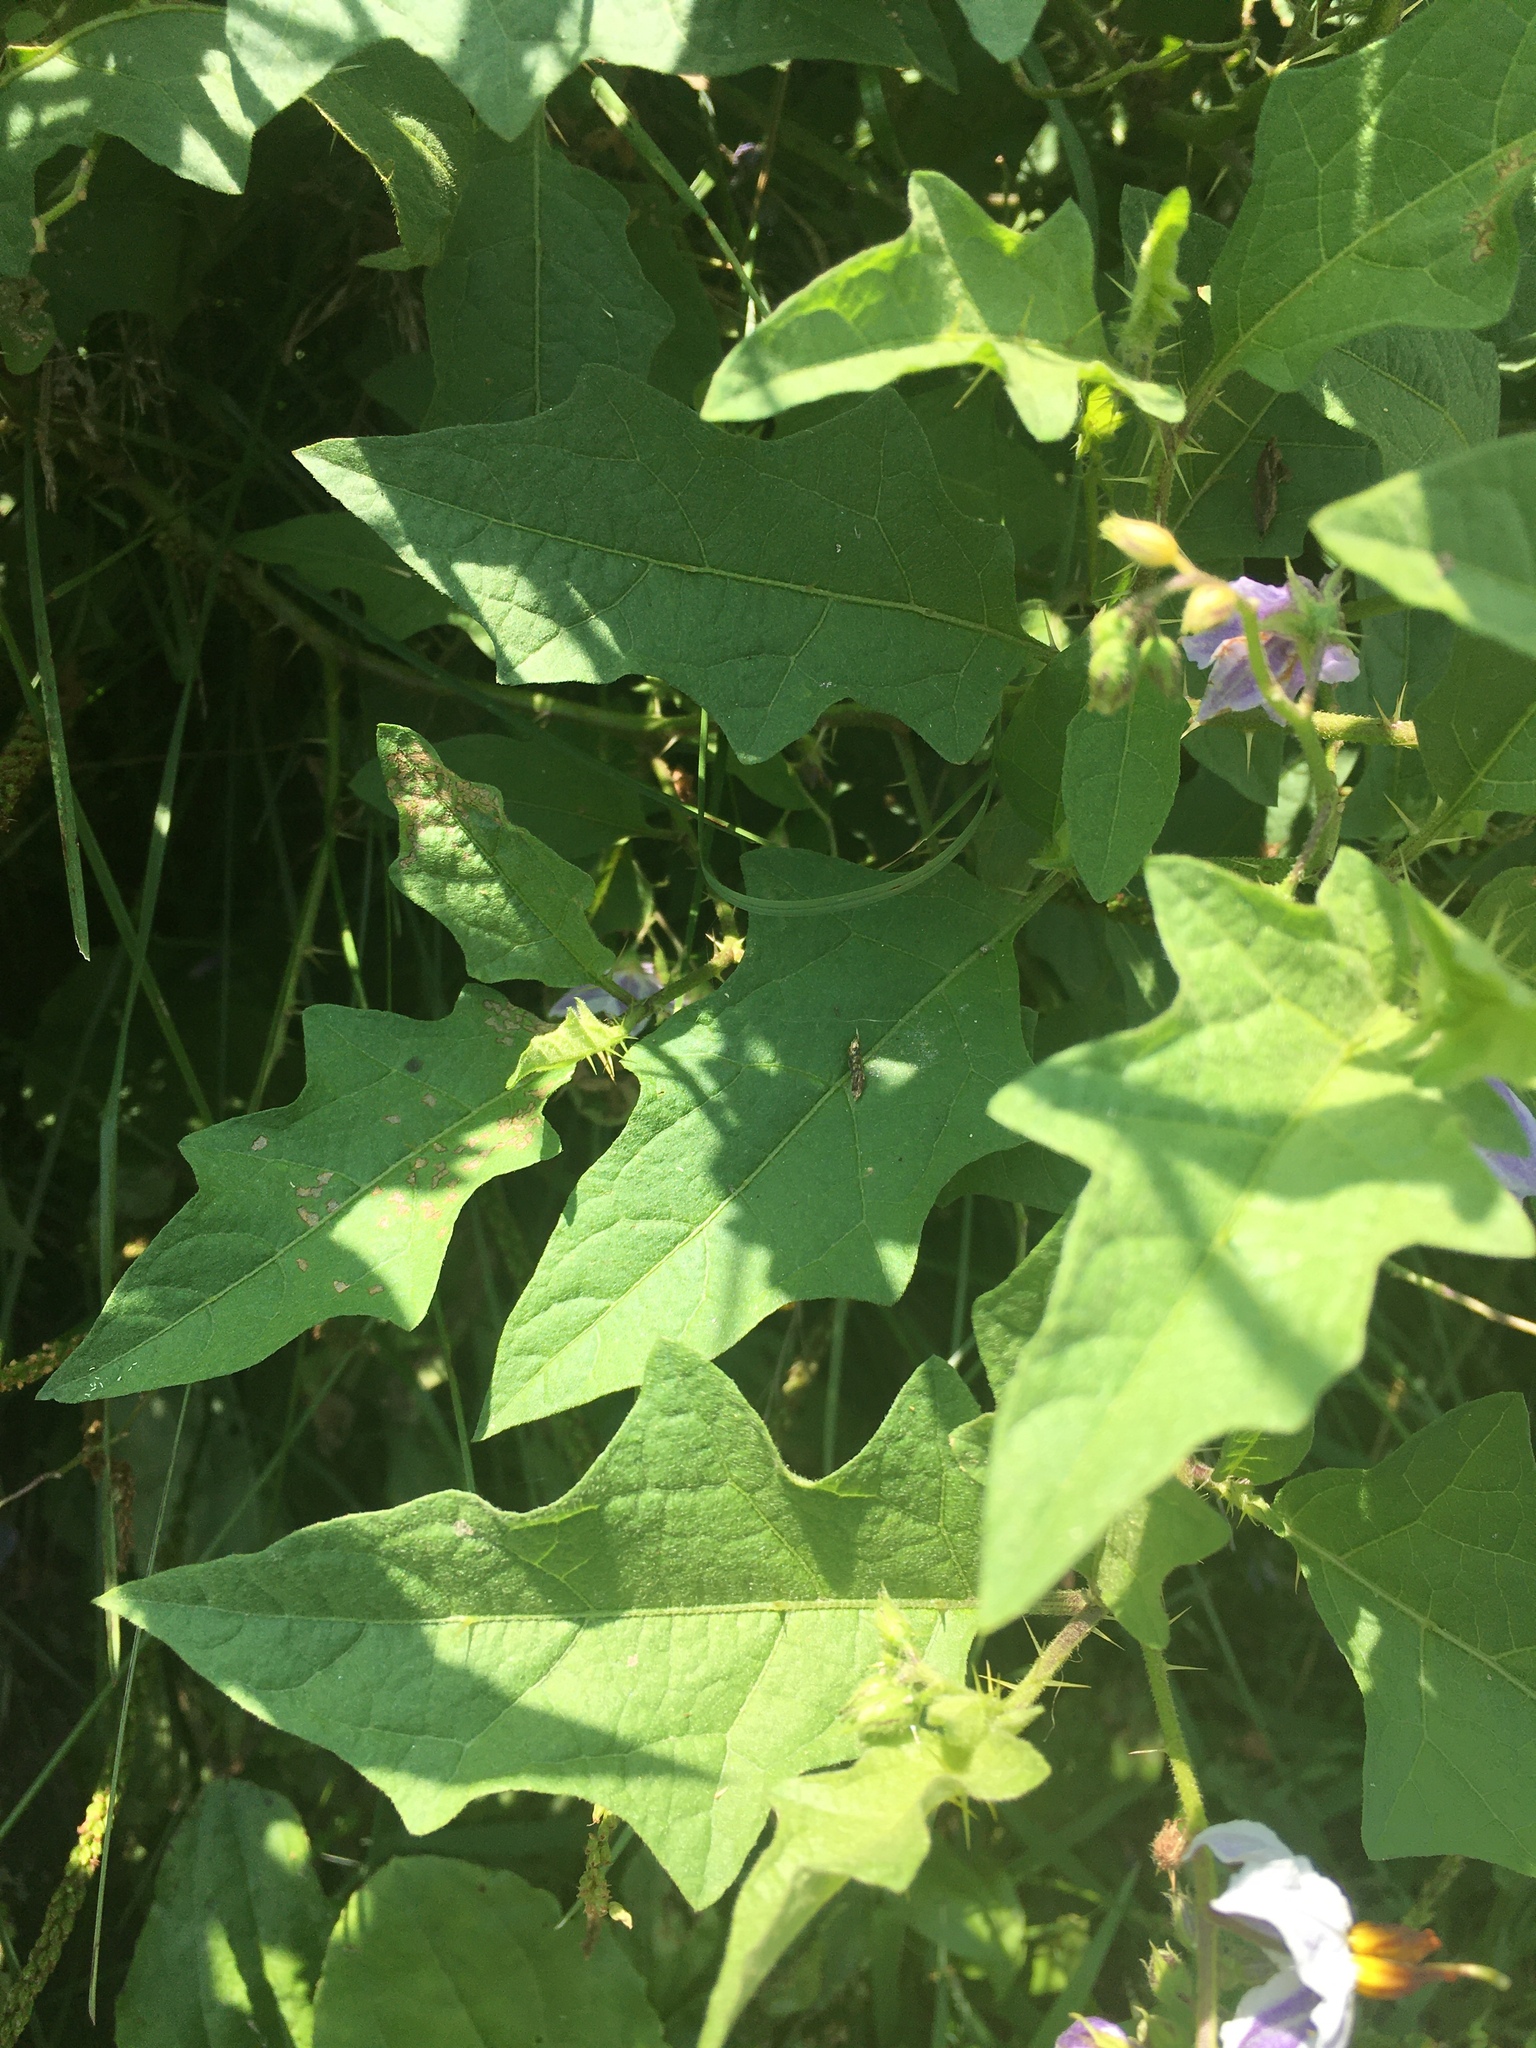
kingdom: Plantae
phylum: Tracheophyta
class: Magnoliopsida
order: Solanales
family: Solanaceae
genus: Solanum
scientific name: Solanum carolinense
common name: Horse-nettle
